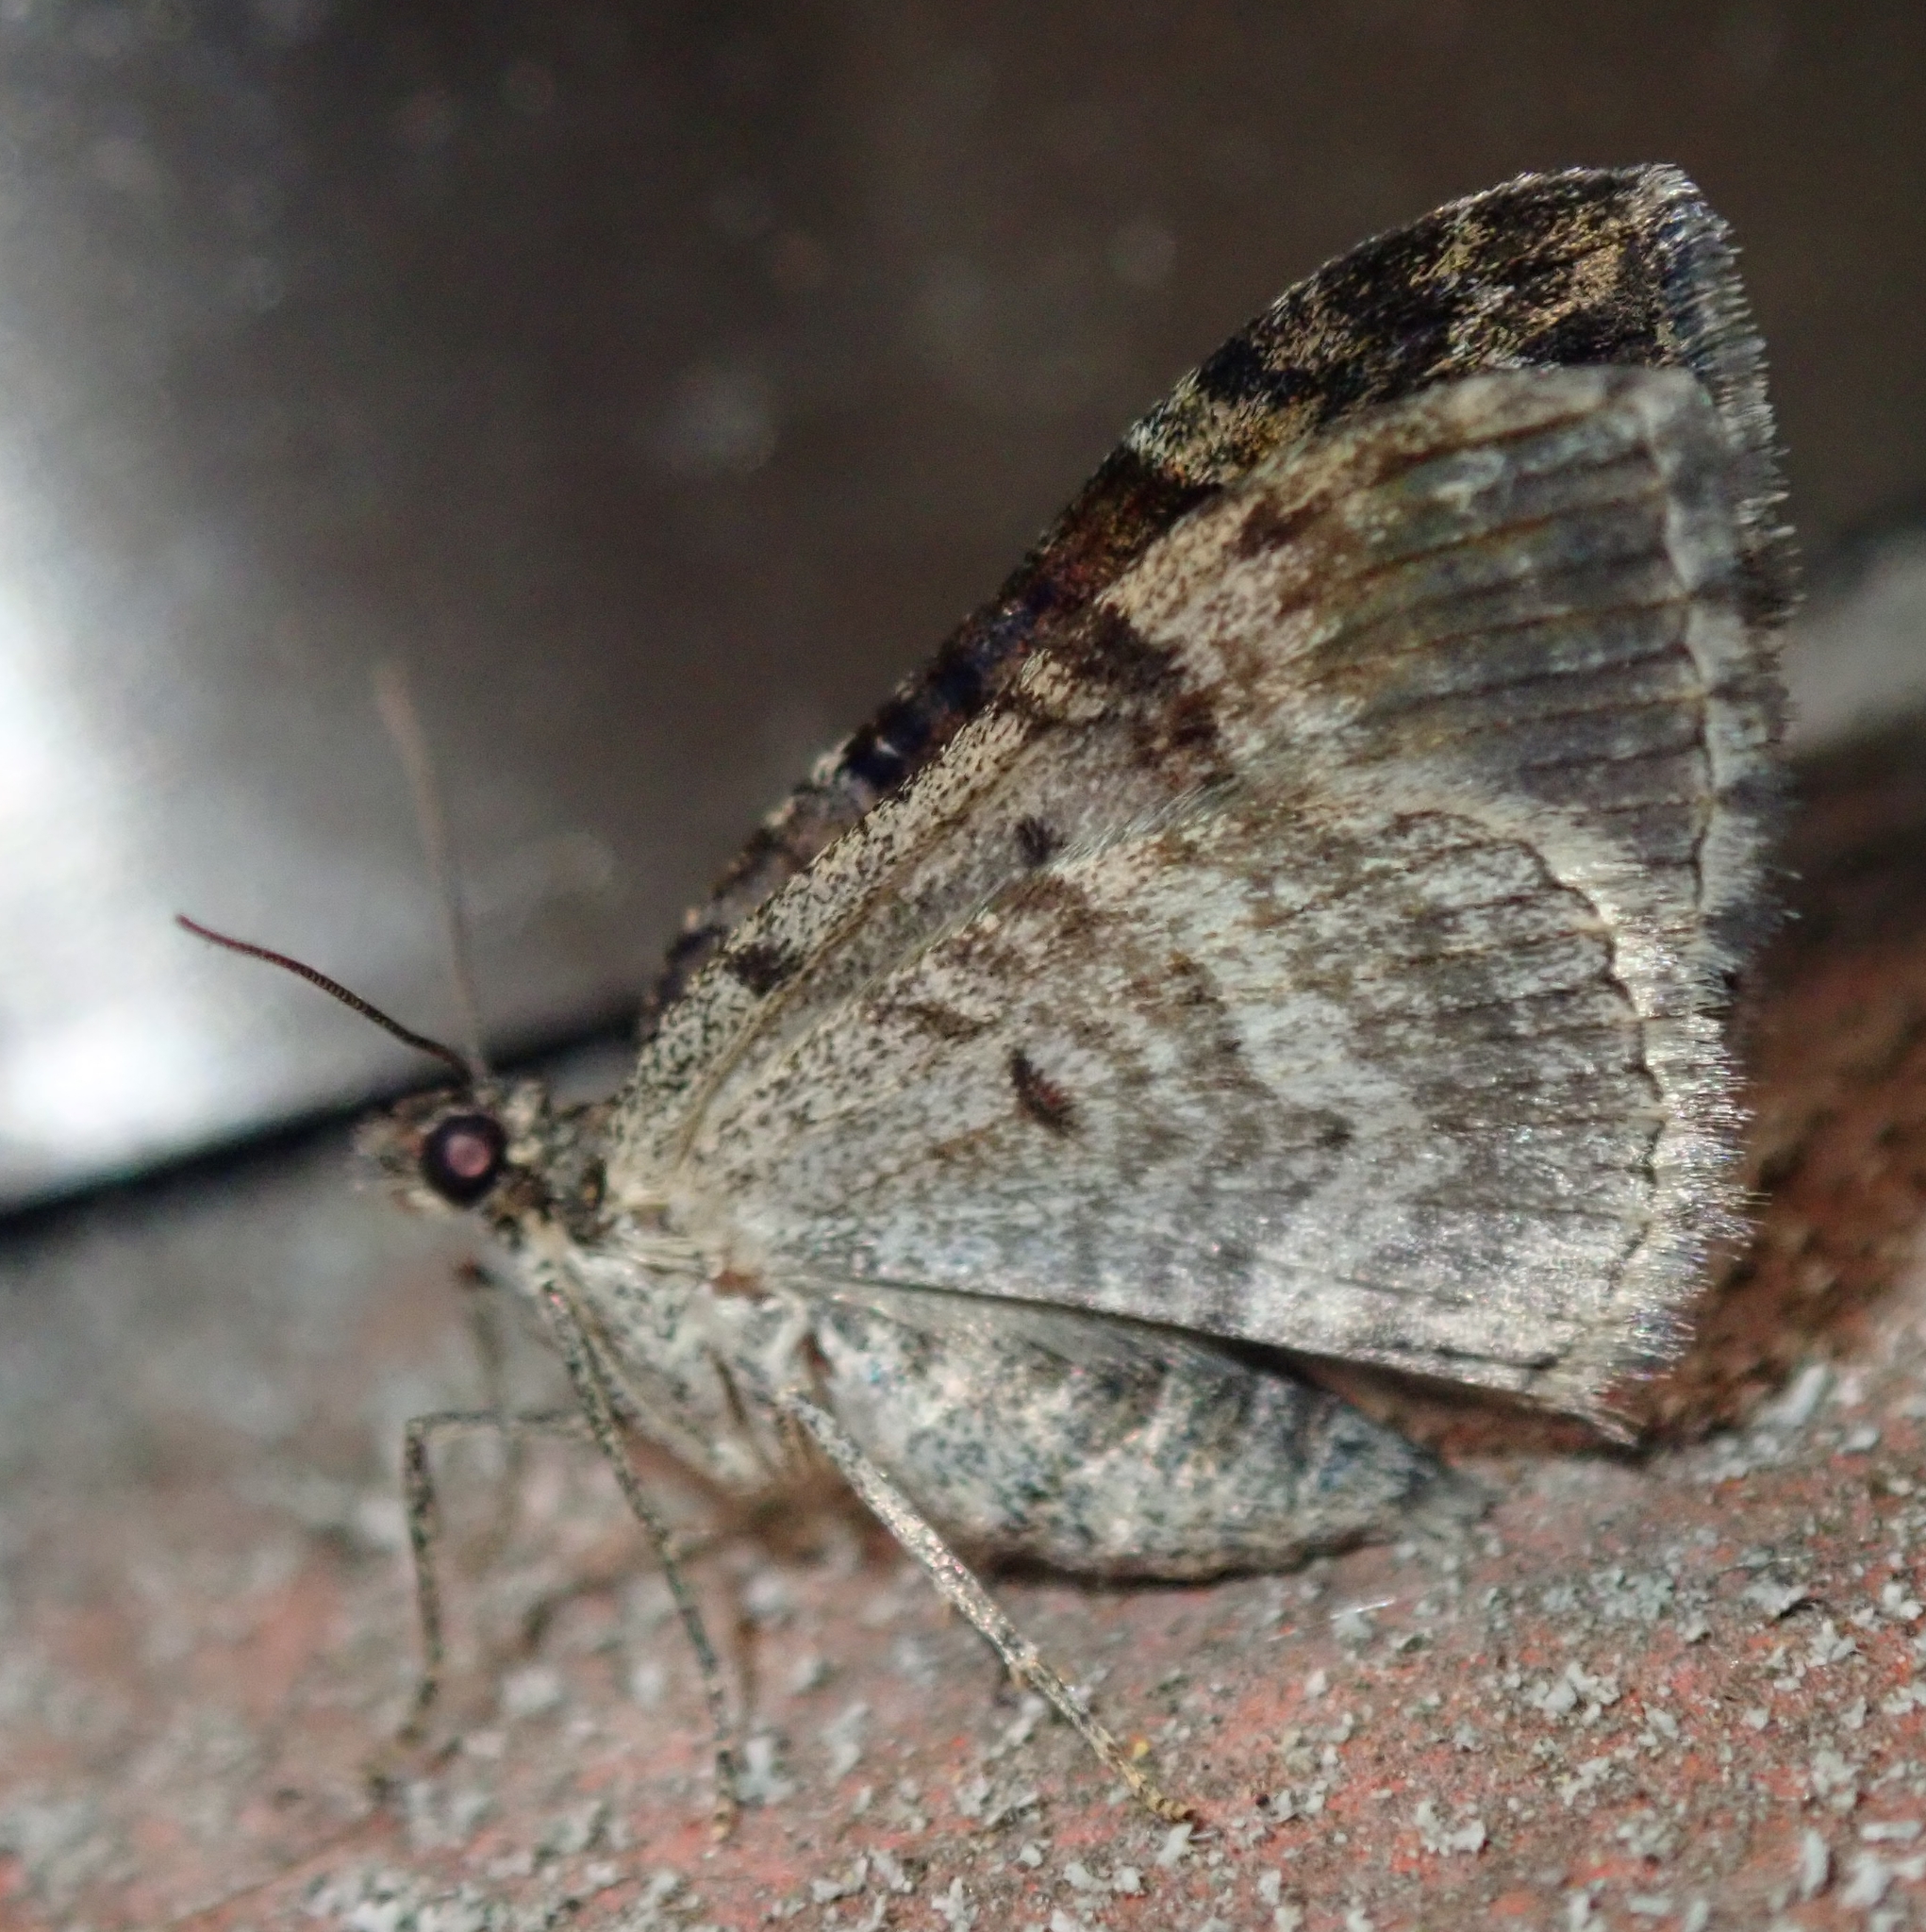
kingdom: Animalia
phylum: Arthropoda
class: Insecta
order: Lepidoptera
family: Geometridae
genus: Xanthorhoe
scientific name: Xanthorhoe quadrifasiata
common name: Large twin-spot carpet
